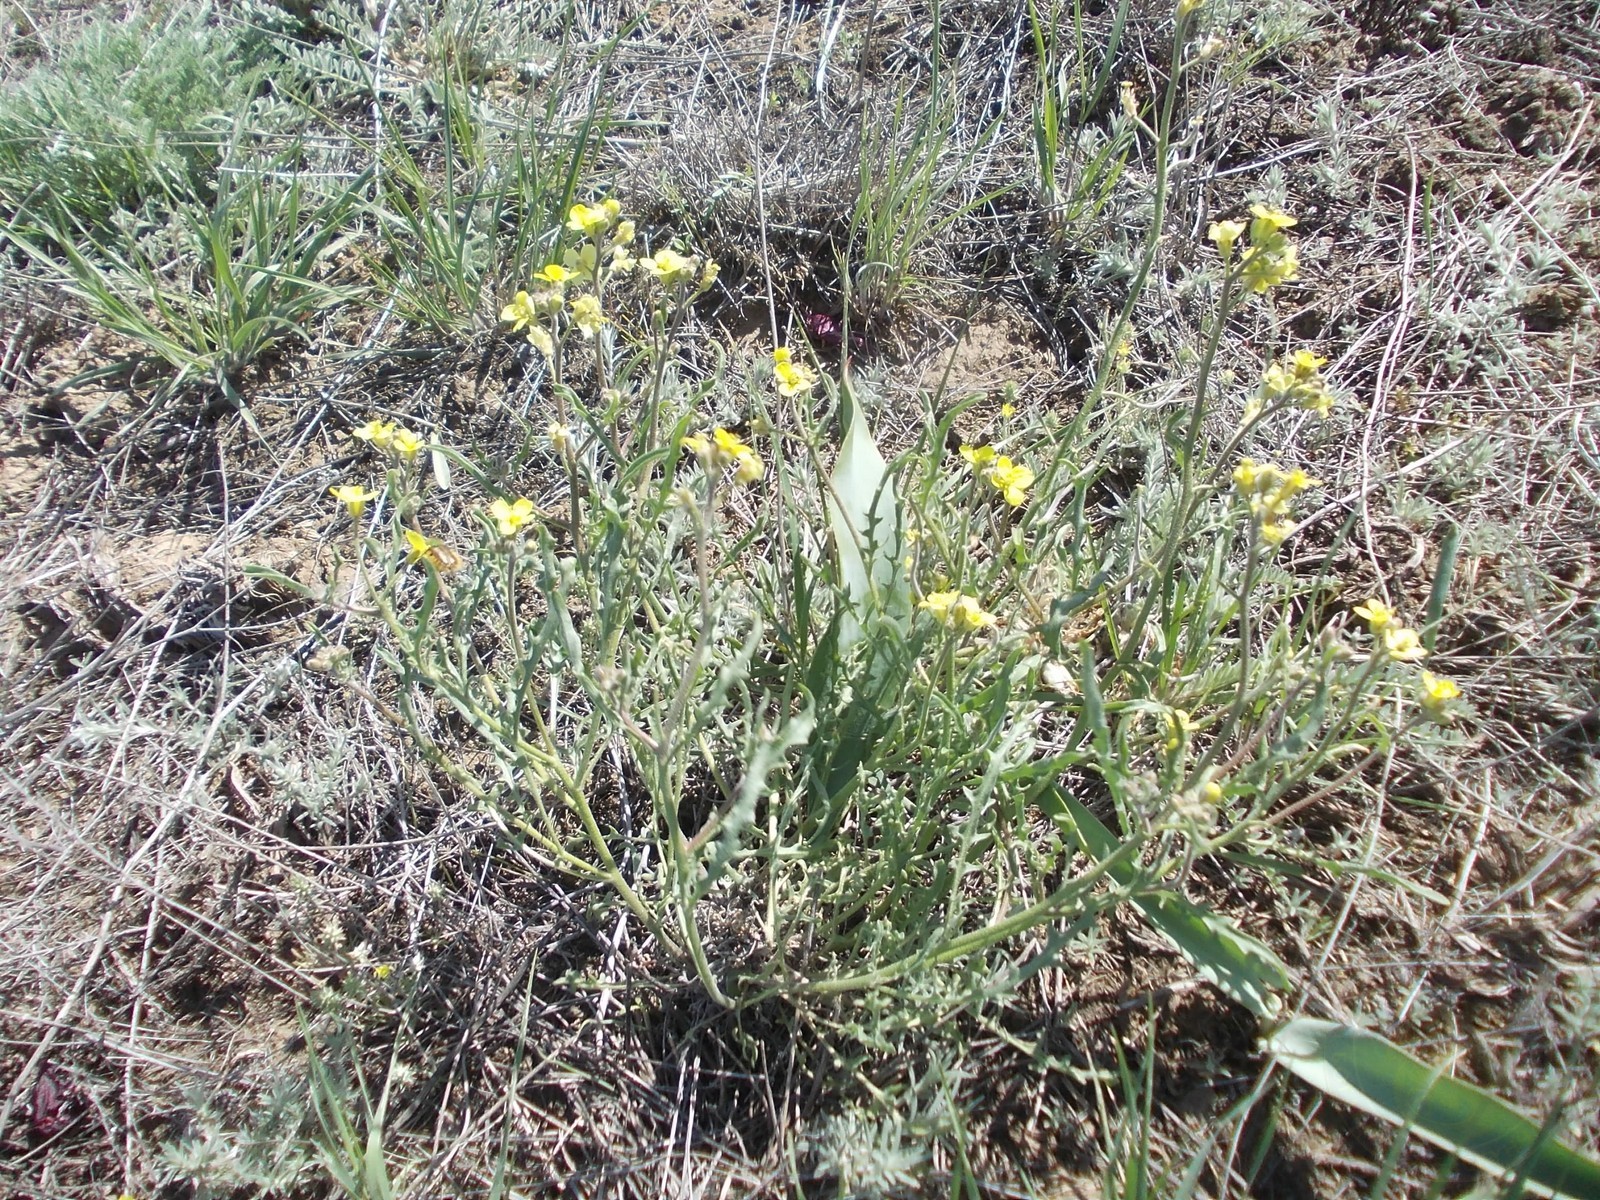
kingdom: Plantae
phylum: Tracheophyta
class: Magnoliopsida
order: Brassicales
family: Brassicaceae
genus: Sterigmostemum
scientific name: Sterigmostemum caspicum
